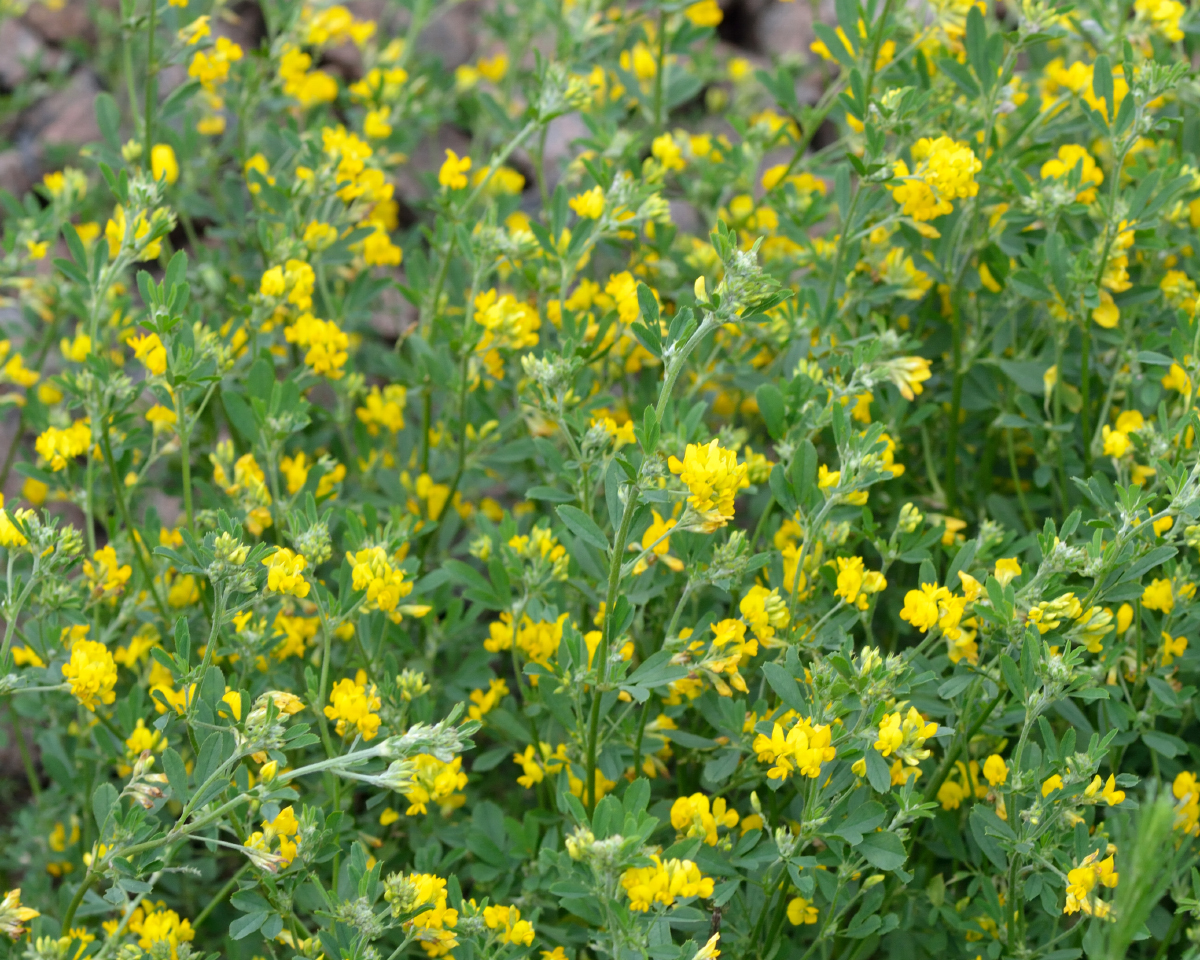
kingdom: Plantae
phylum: Tracheophyta
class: Magnoliopsida
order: Fabales
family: Fabaceae
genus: Medicago
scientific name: Medicago falcata
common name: Sickle medick
